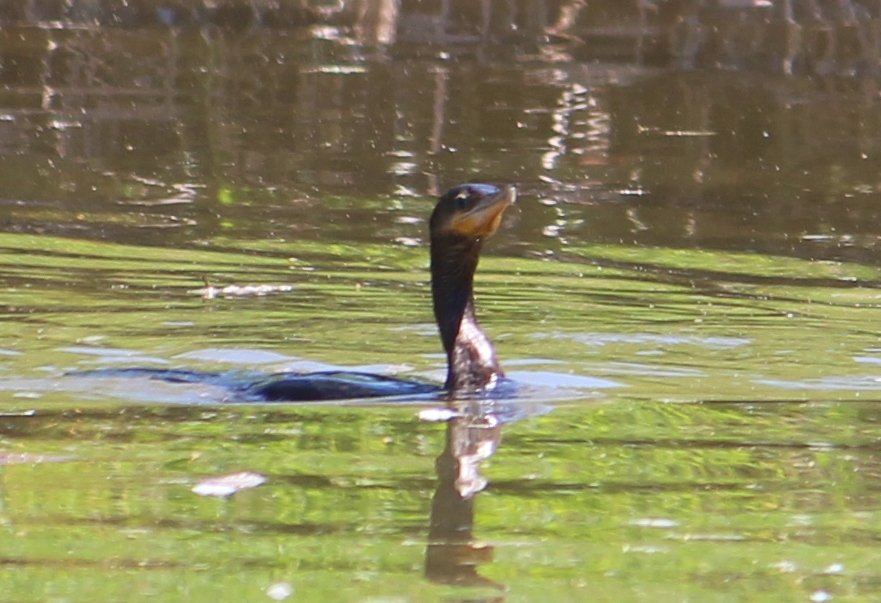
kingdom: Animalia
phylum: Chordata
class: Aves
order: Suliformes
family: Phalacrocoracidae
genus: Phalacrocorax
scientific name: Phalacrocorax brasilianus
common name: Neotropic cormorant
